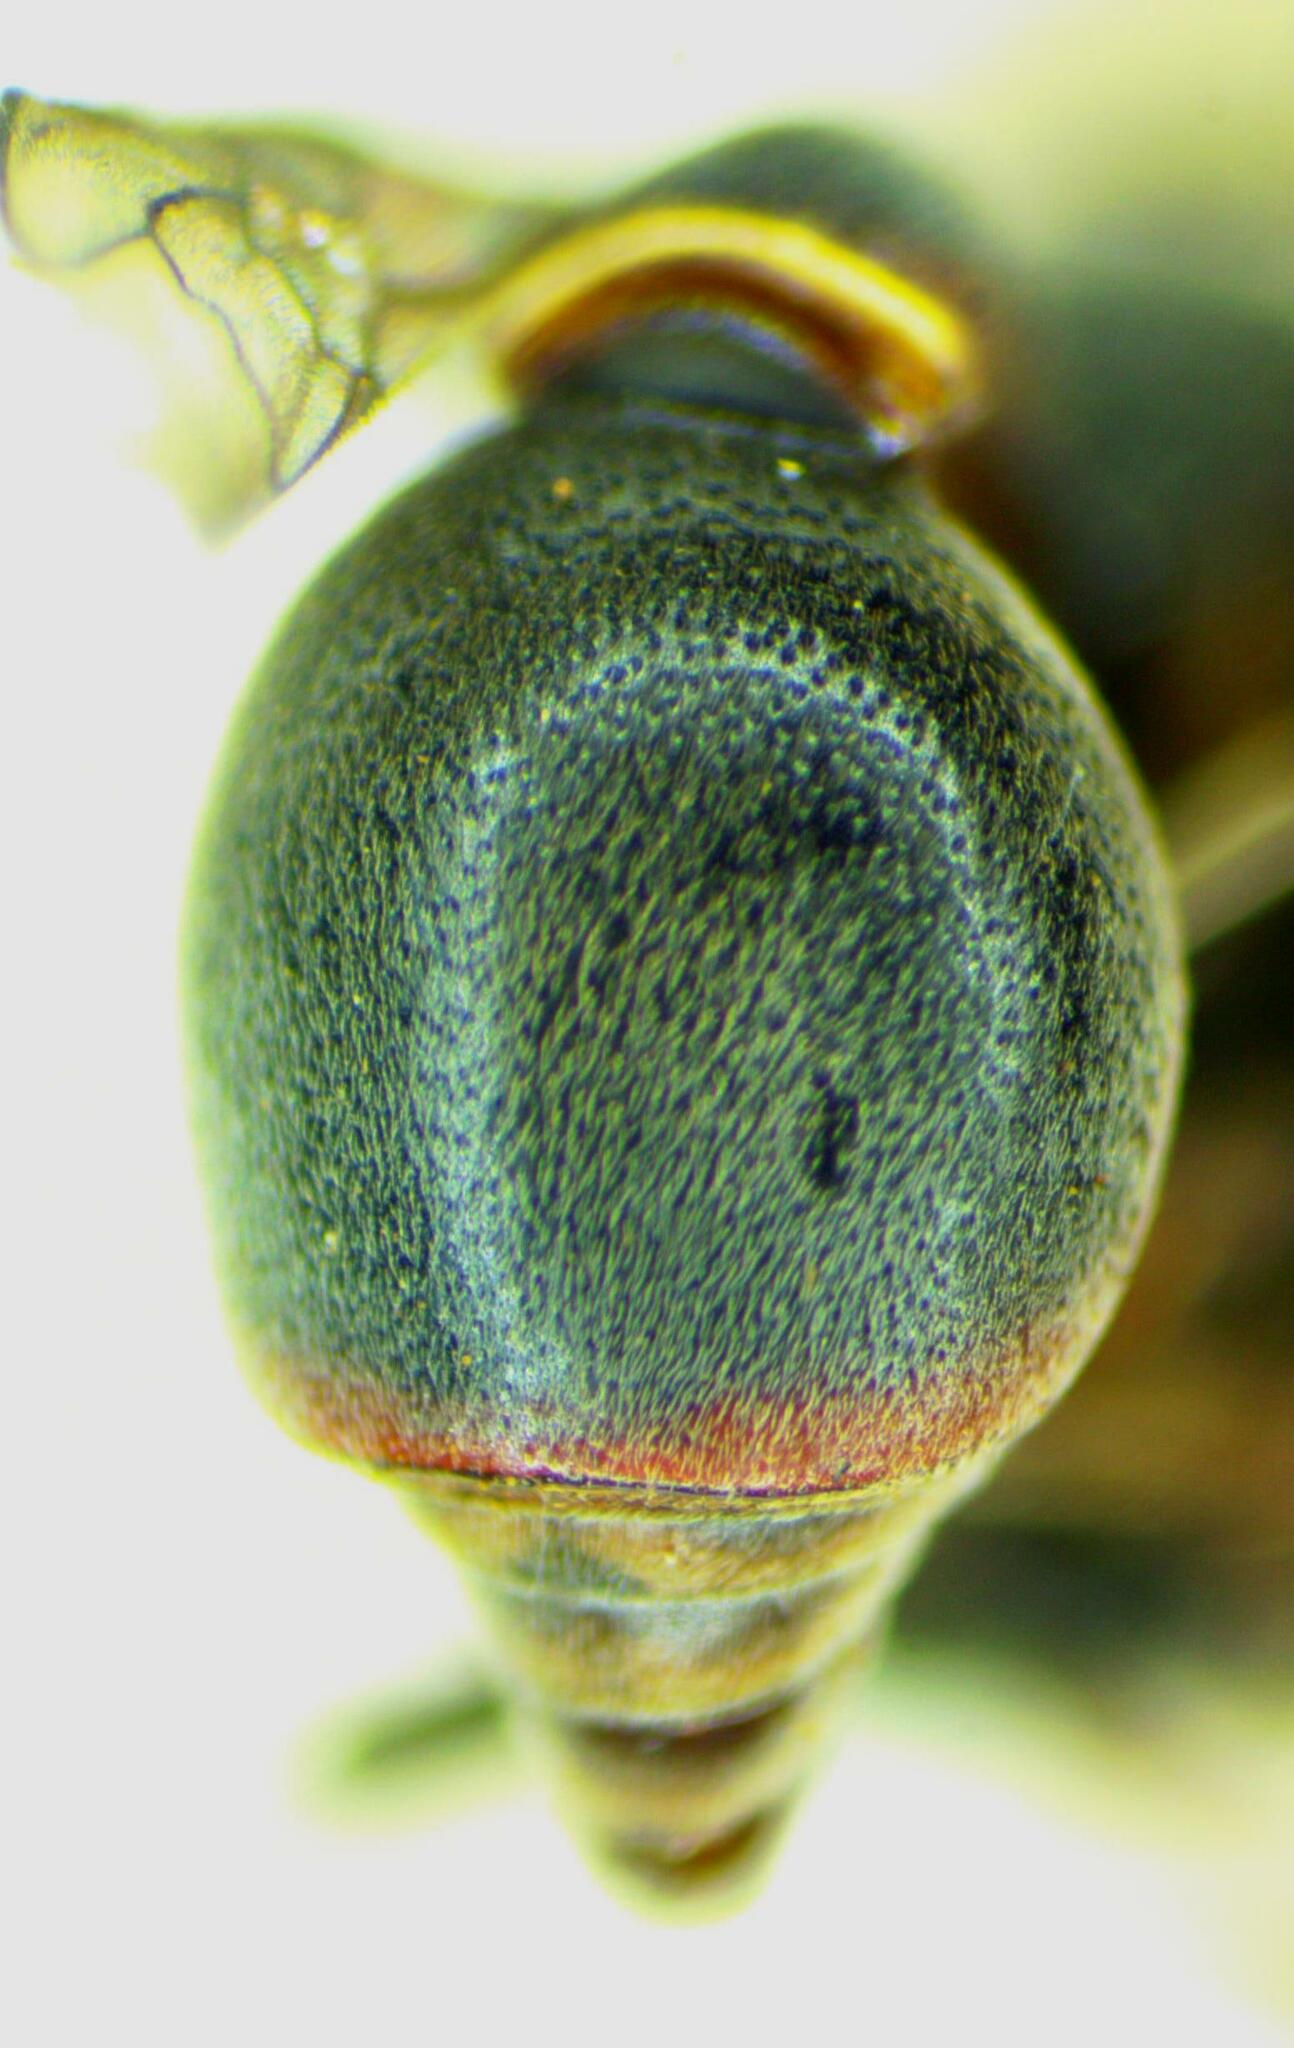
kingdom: Animalia
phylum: Arthropoda
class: Insecta
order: Hymenoptera
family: Eumenidae
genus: Omicron
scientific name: Omicron tegulare
